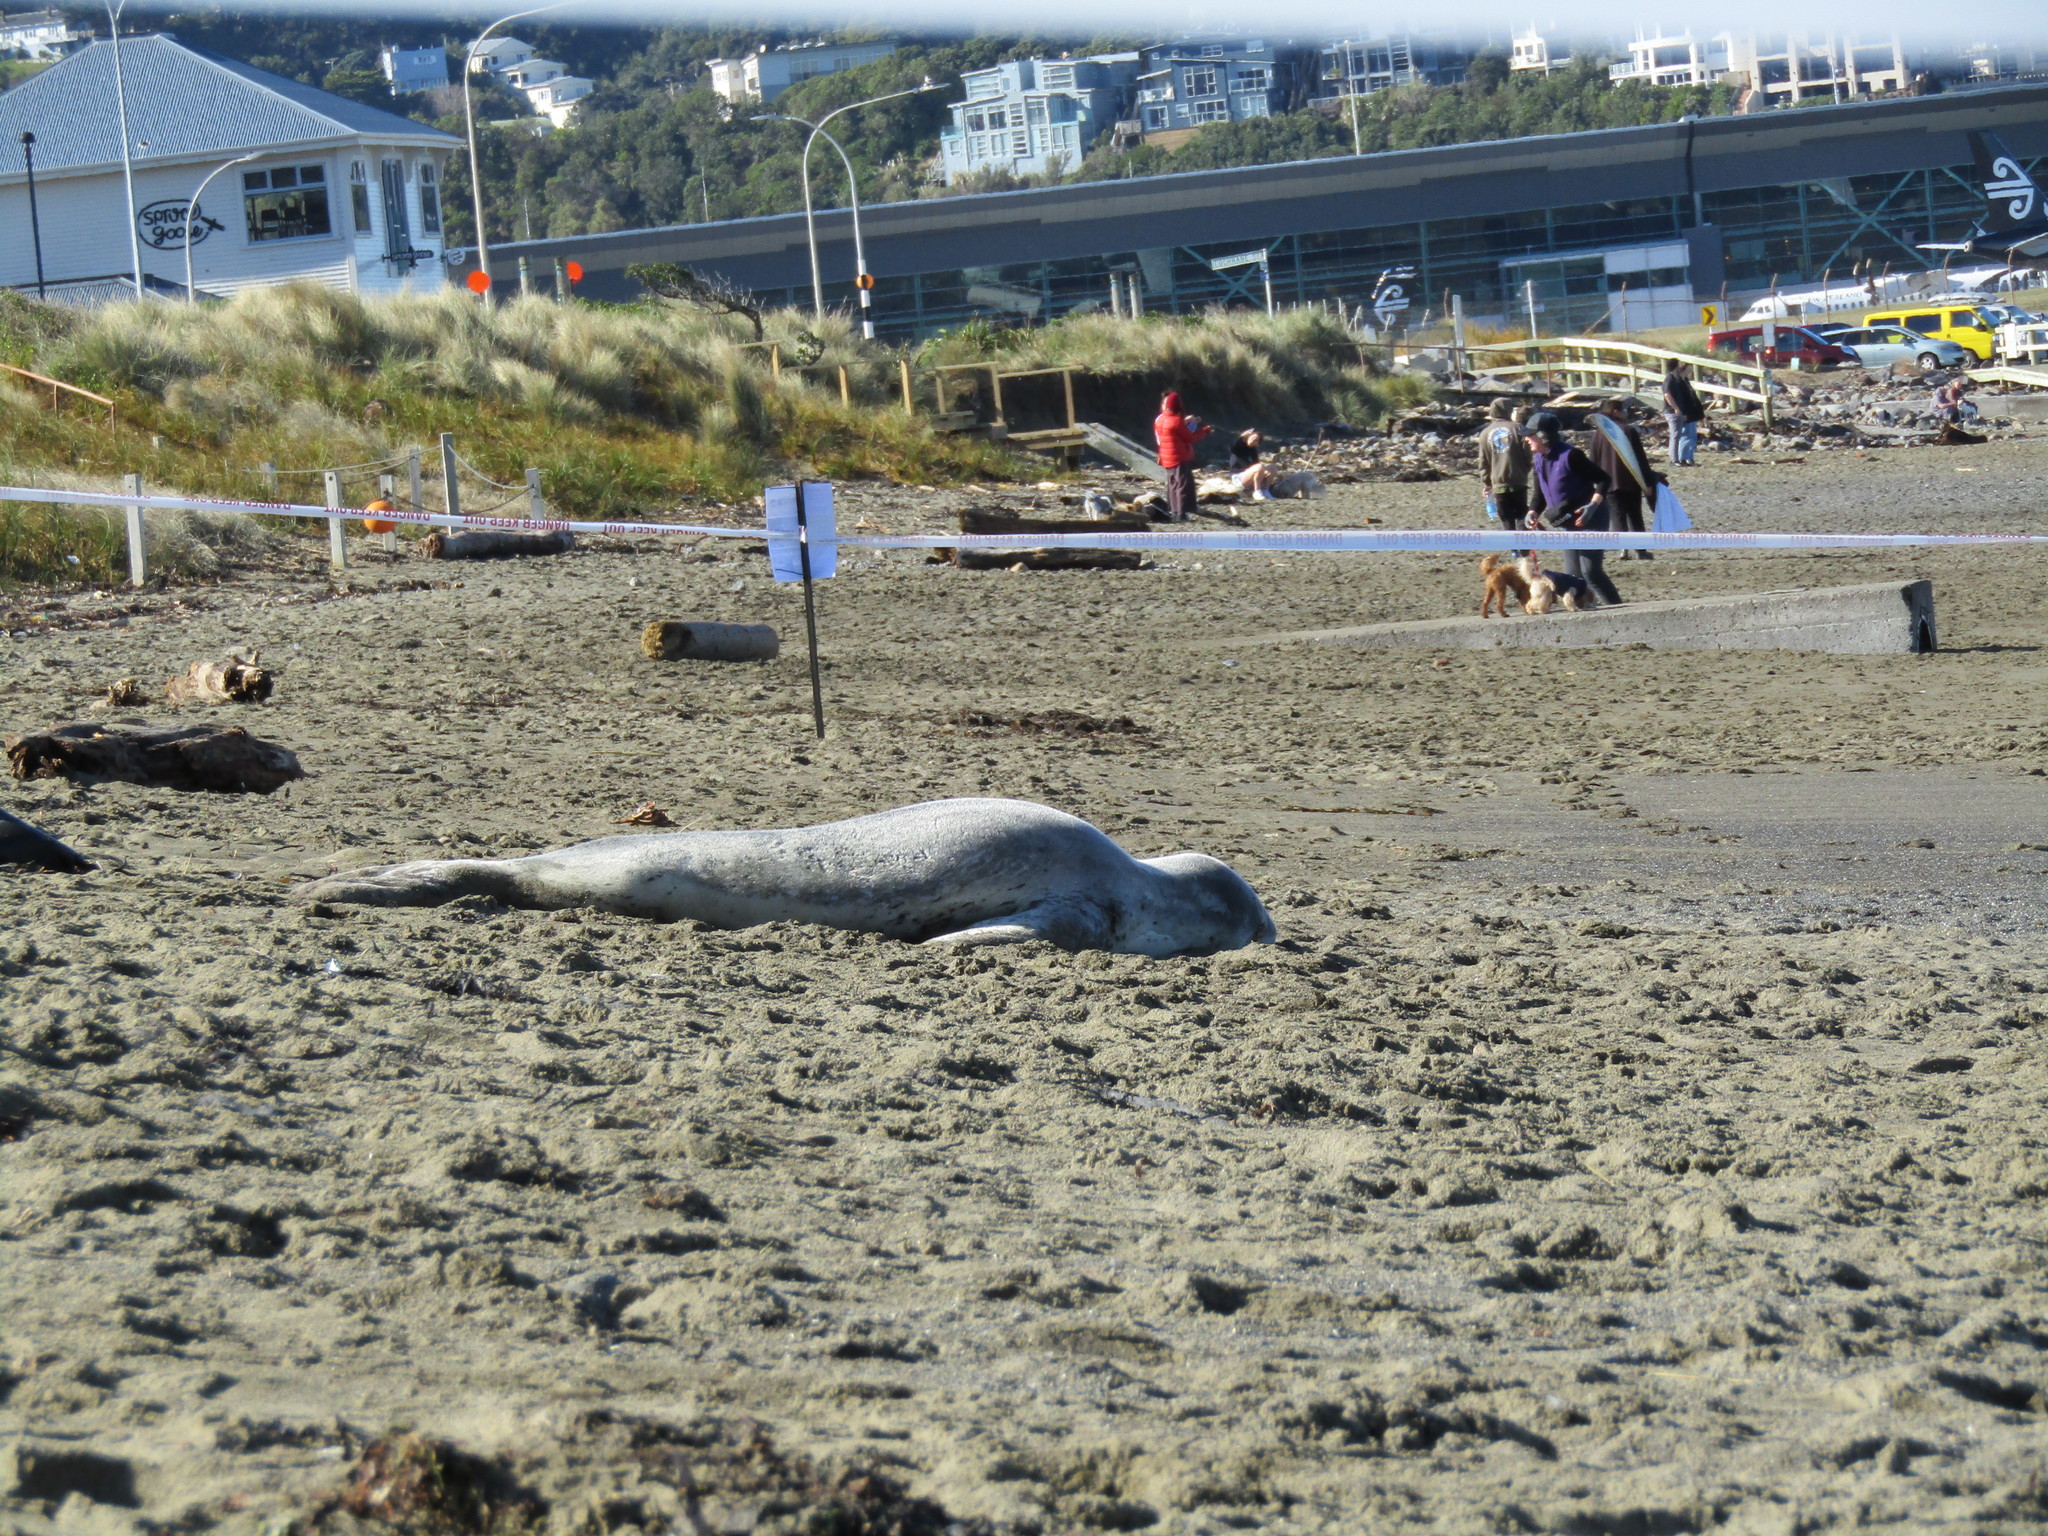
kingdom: Animalia
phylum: Chordata
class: Mammalia
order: Carnivora
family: Phocidae
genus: Hydrurga
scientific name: Hydrurga leptonyx
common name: Leopard seal
